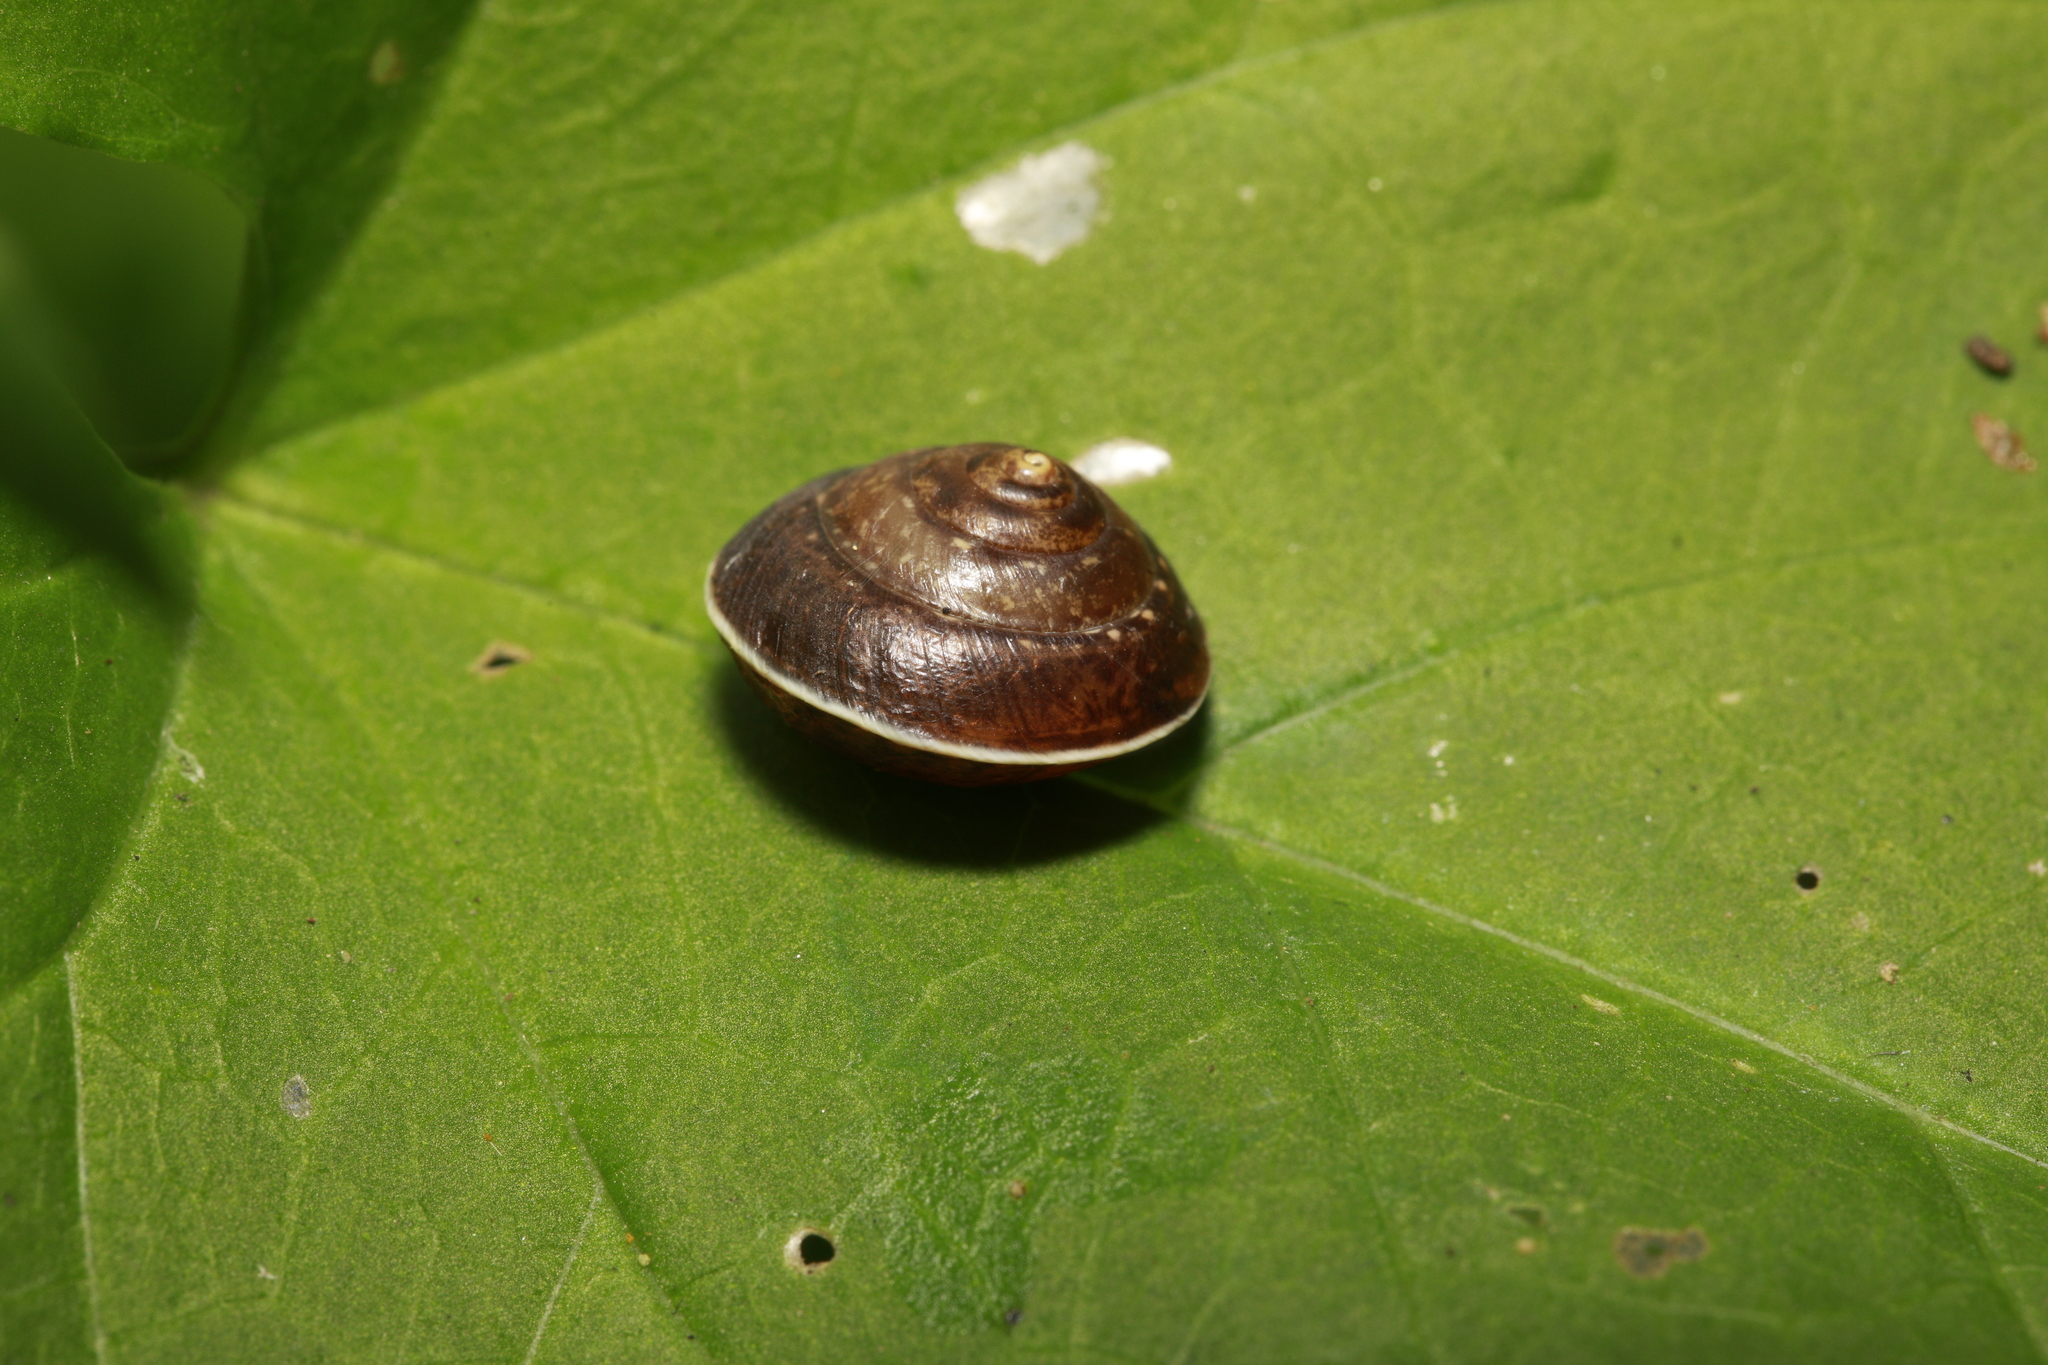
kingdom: Animalia
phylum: Mollusca
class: Gastropoda
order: Stylommatophora
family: Hygromiidae
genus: Hygromia
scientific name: Hygromia cinctella
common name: Girdled snail
